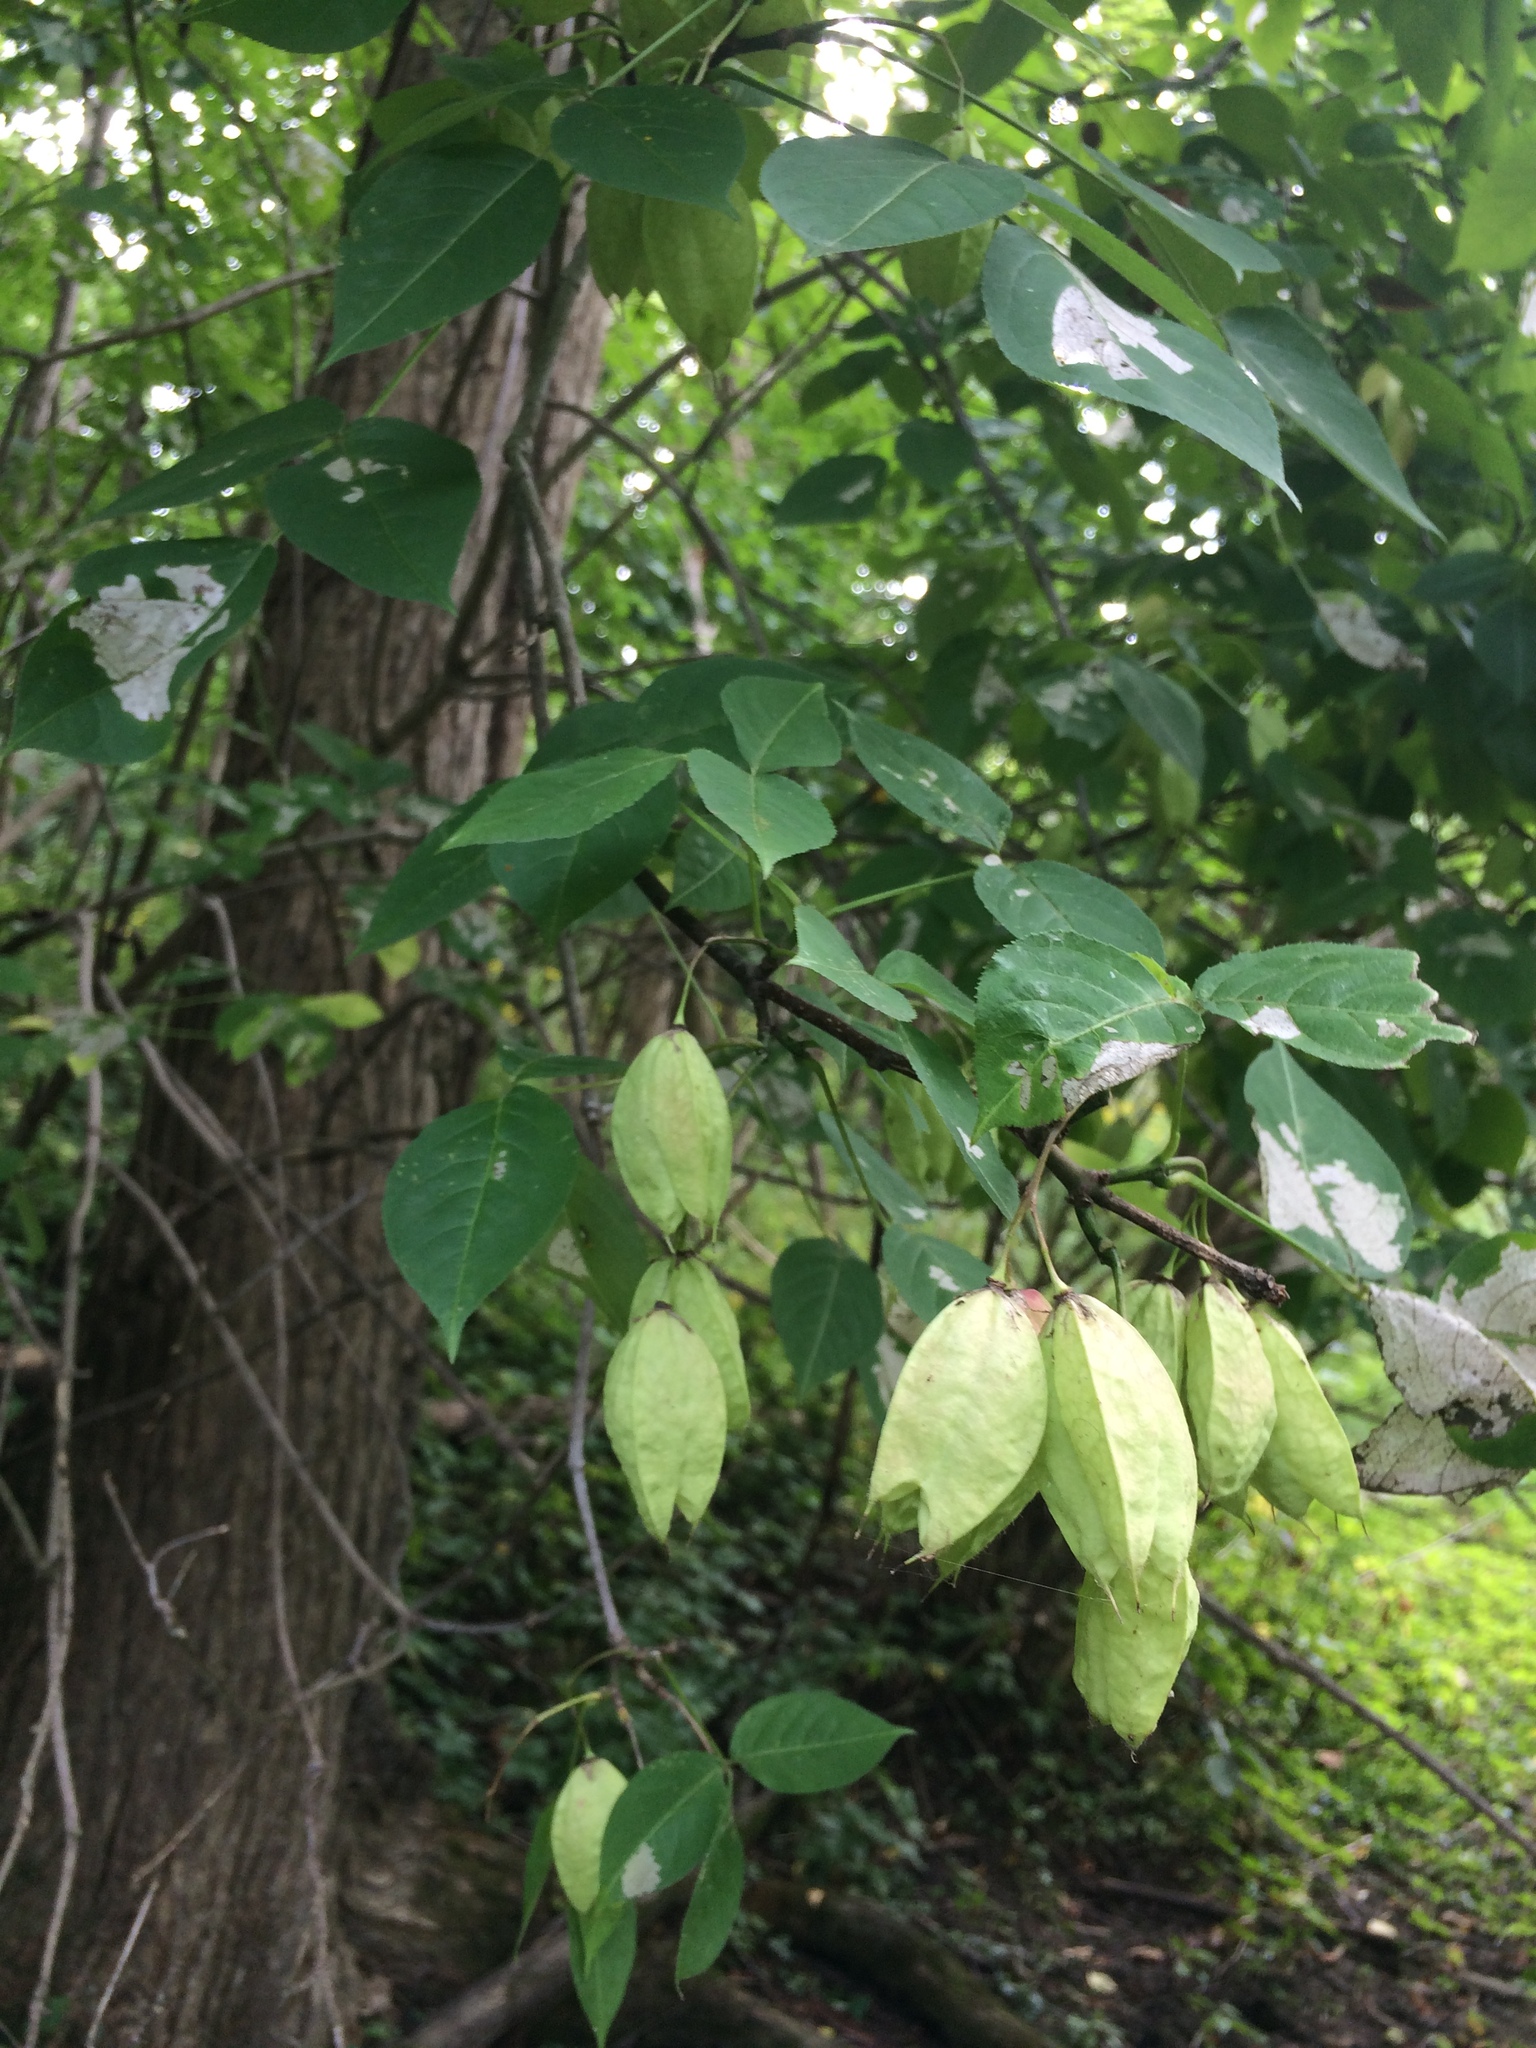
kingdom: Plantae
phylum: Tracheophyta
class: Magnoliopsida
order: Crossosomatales
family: Staphyleaceae
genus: Staphylea
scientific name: Staphylea trifolia
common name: American bladdernut
